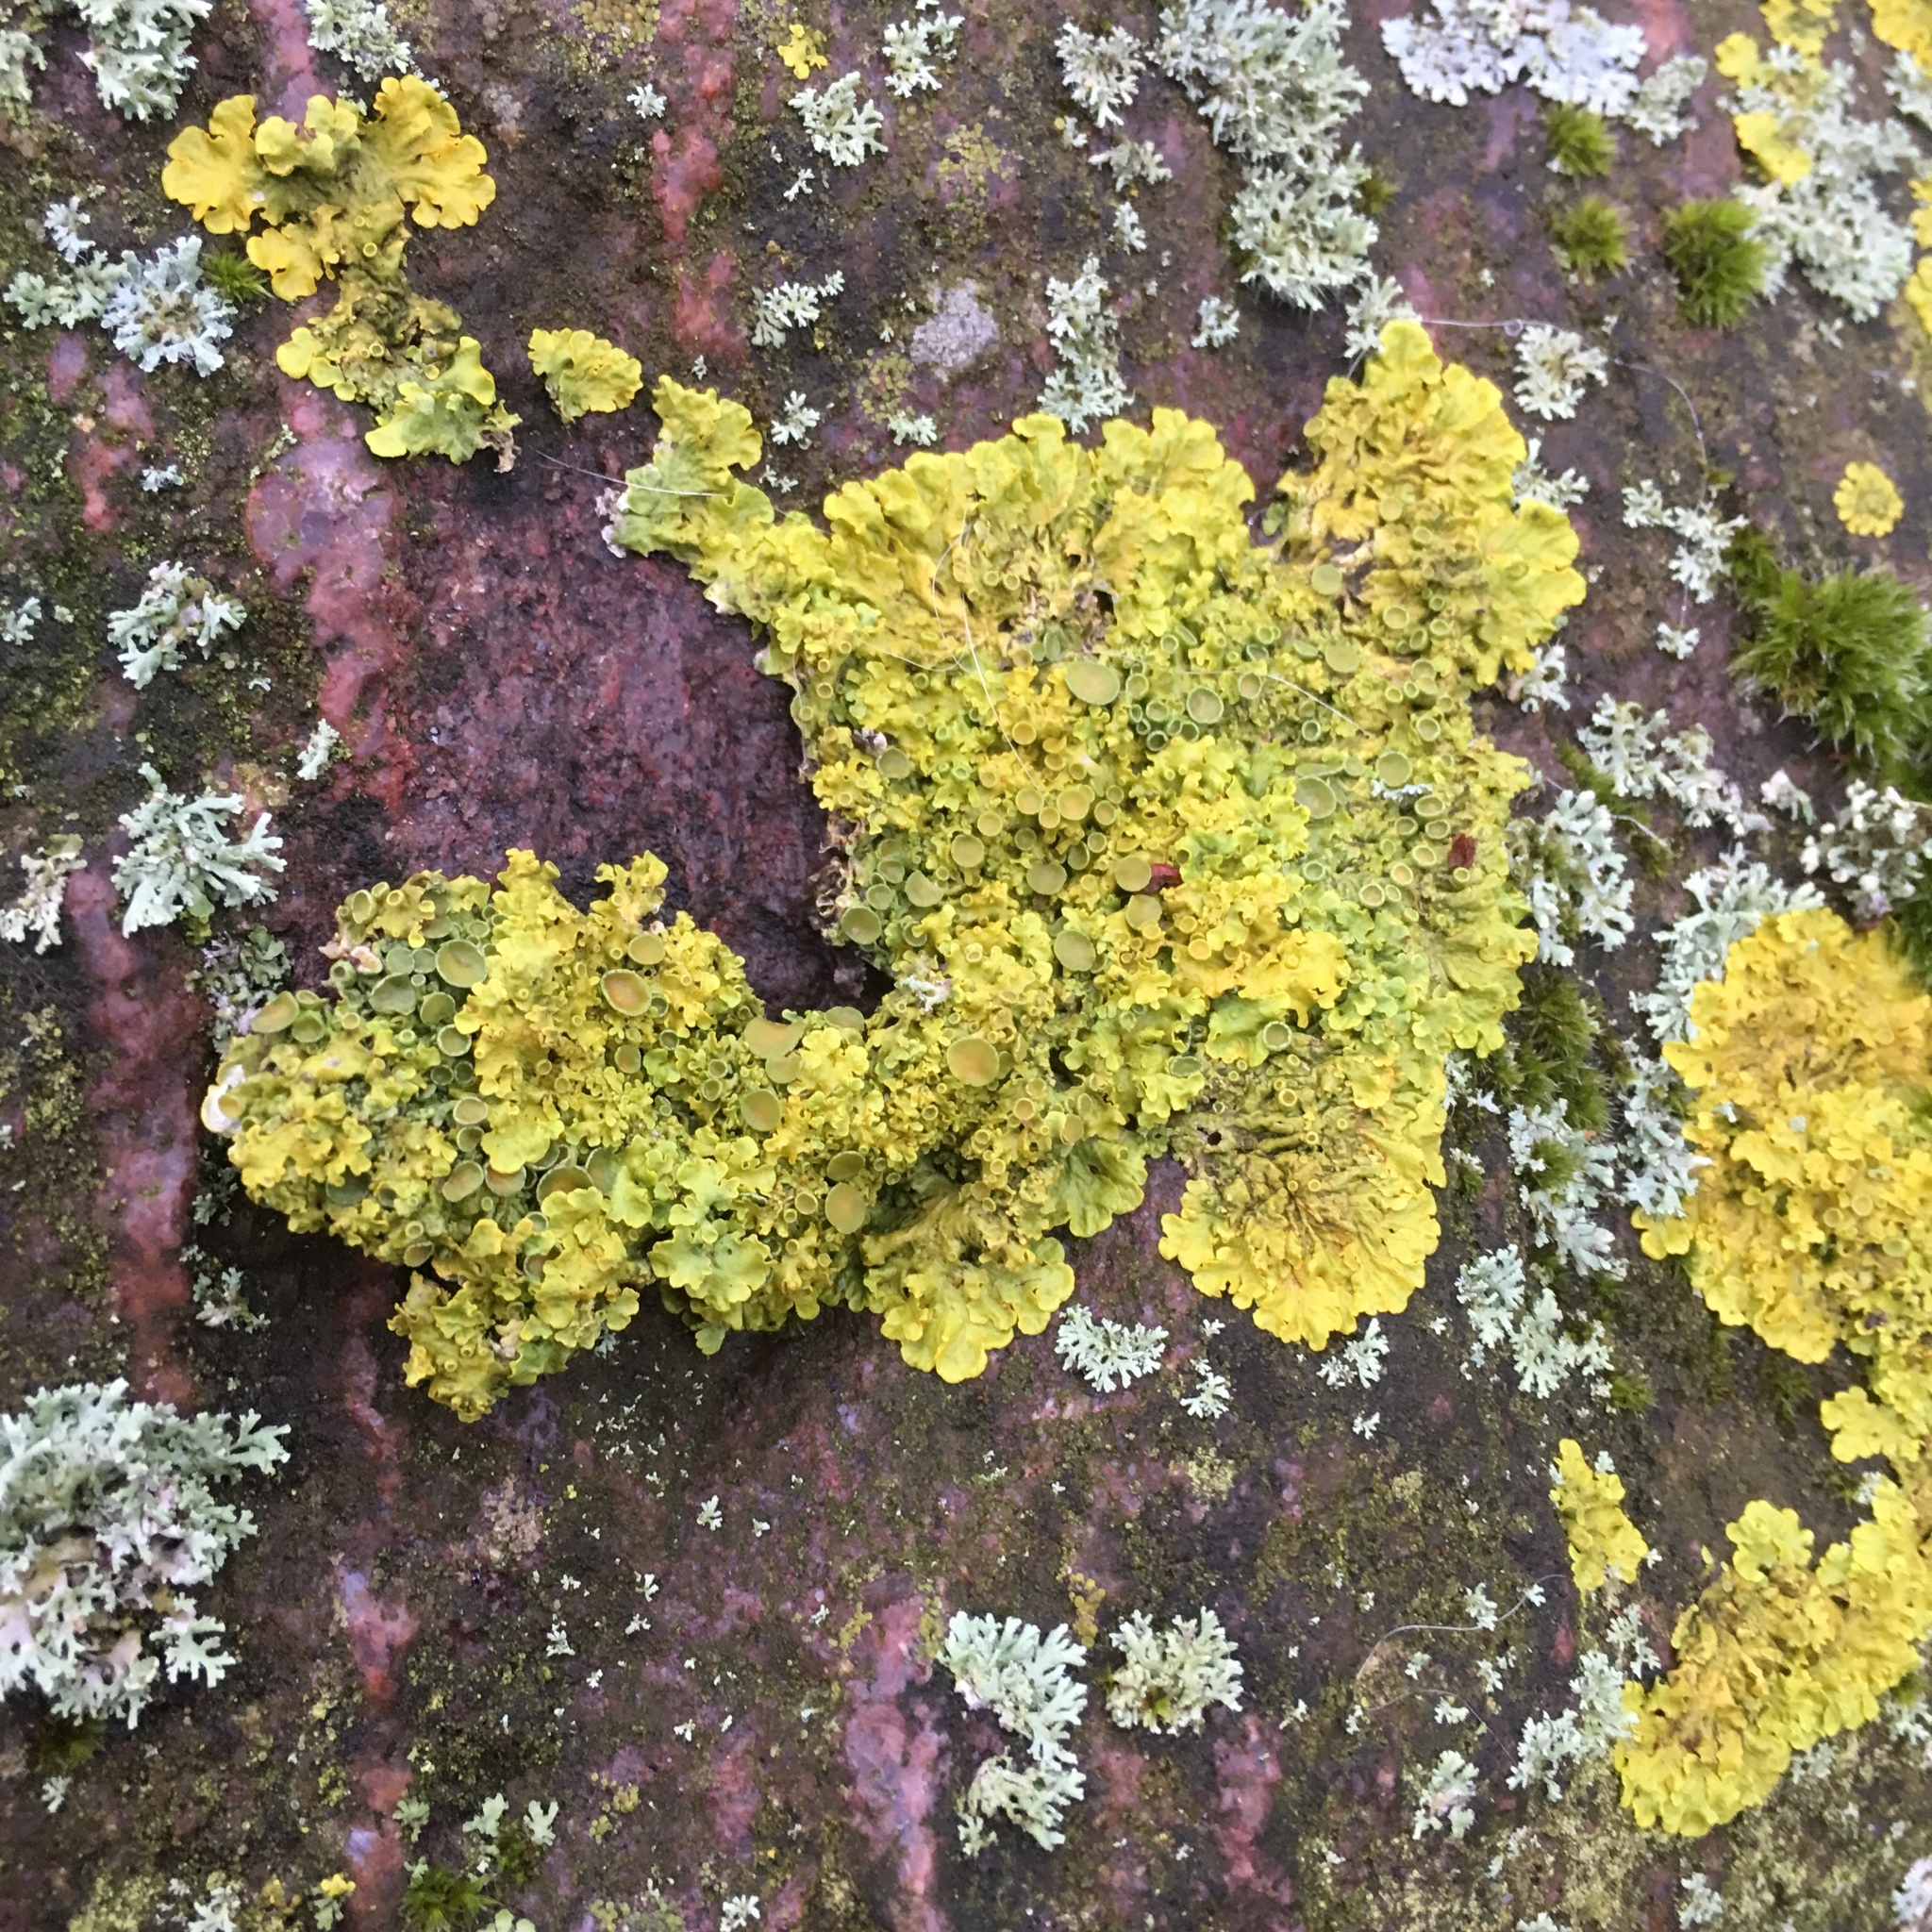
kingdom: Fungi
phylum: Ascomycota
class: Lecanoromycetes
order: Teloschistales
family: Teloschistaceae
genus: Xanthoria
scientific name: Xanthoria parietina
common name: Common orange lichen
